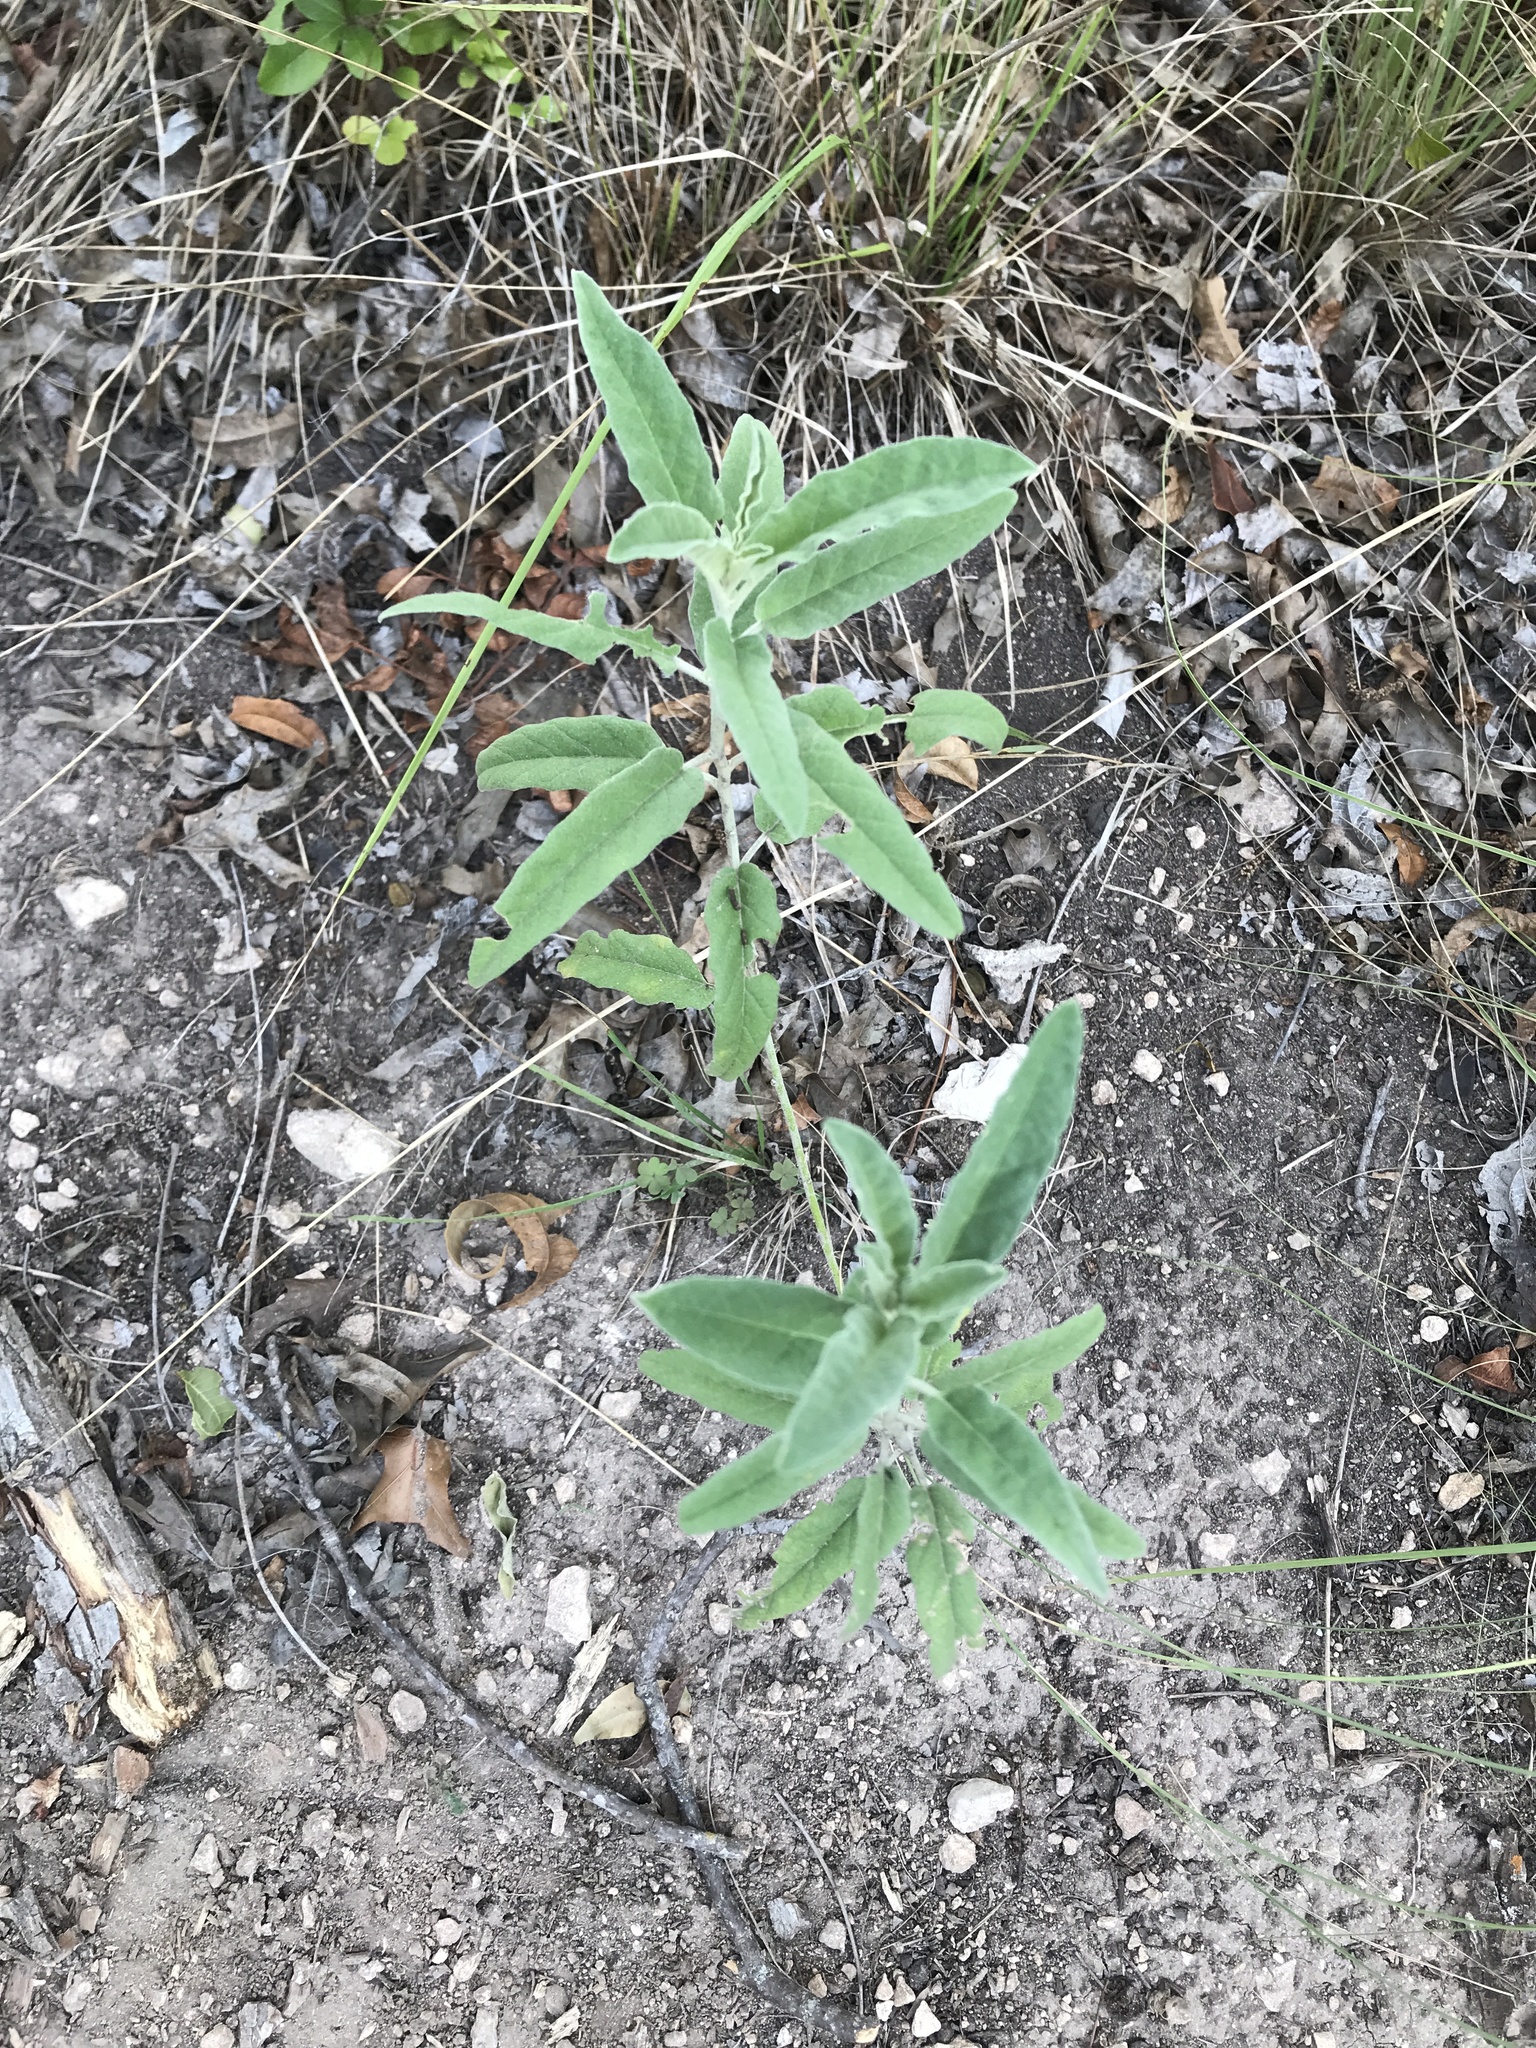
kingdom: Plantae
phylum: Tracheophyta
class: Magnoliopsida
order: Solanales
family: Solanaceae
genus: Solanum
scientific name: Solanum elaeagnifolium
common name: Silverleaf nightshade
